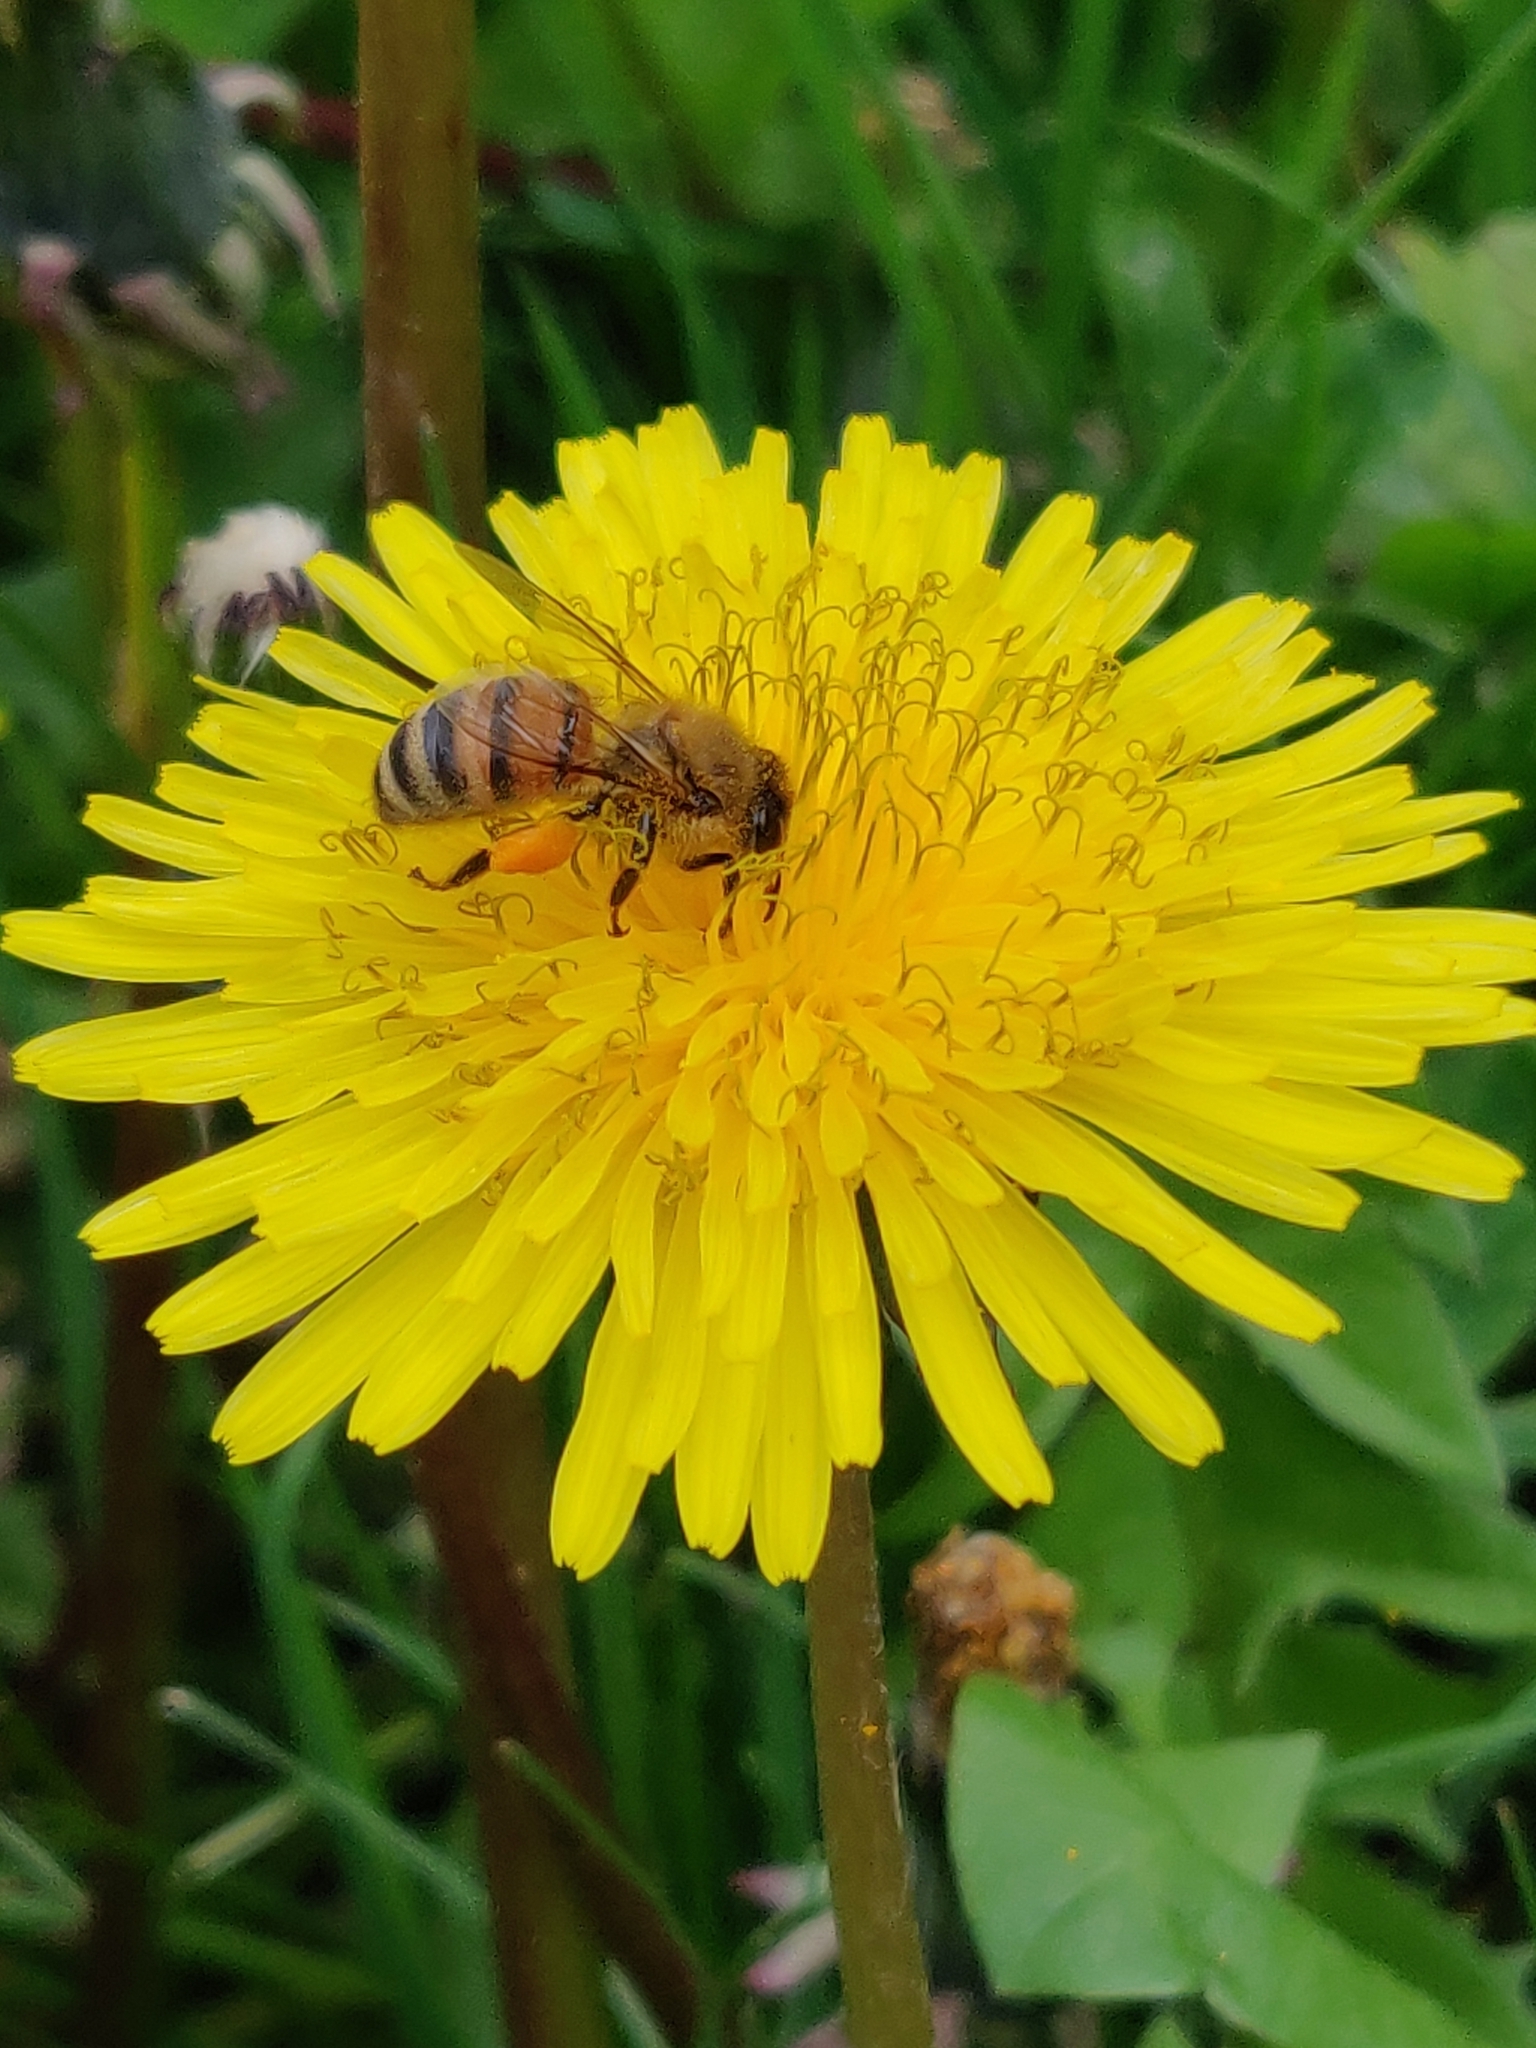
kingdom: Animalia
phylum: Arthropoda
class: Insecta
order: Hymenoptera
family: Apidae
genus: Apis
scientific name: Apis mellifera
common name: Honey bee
